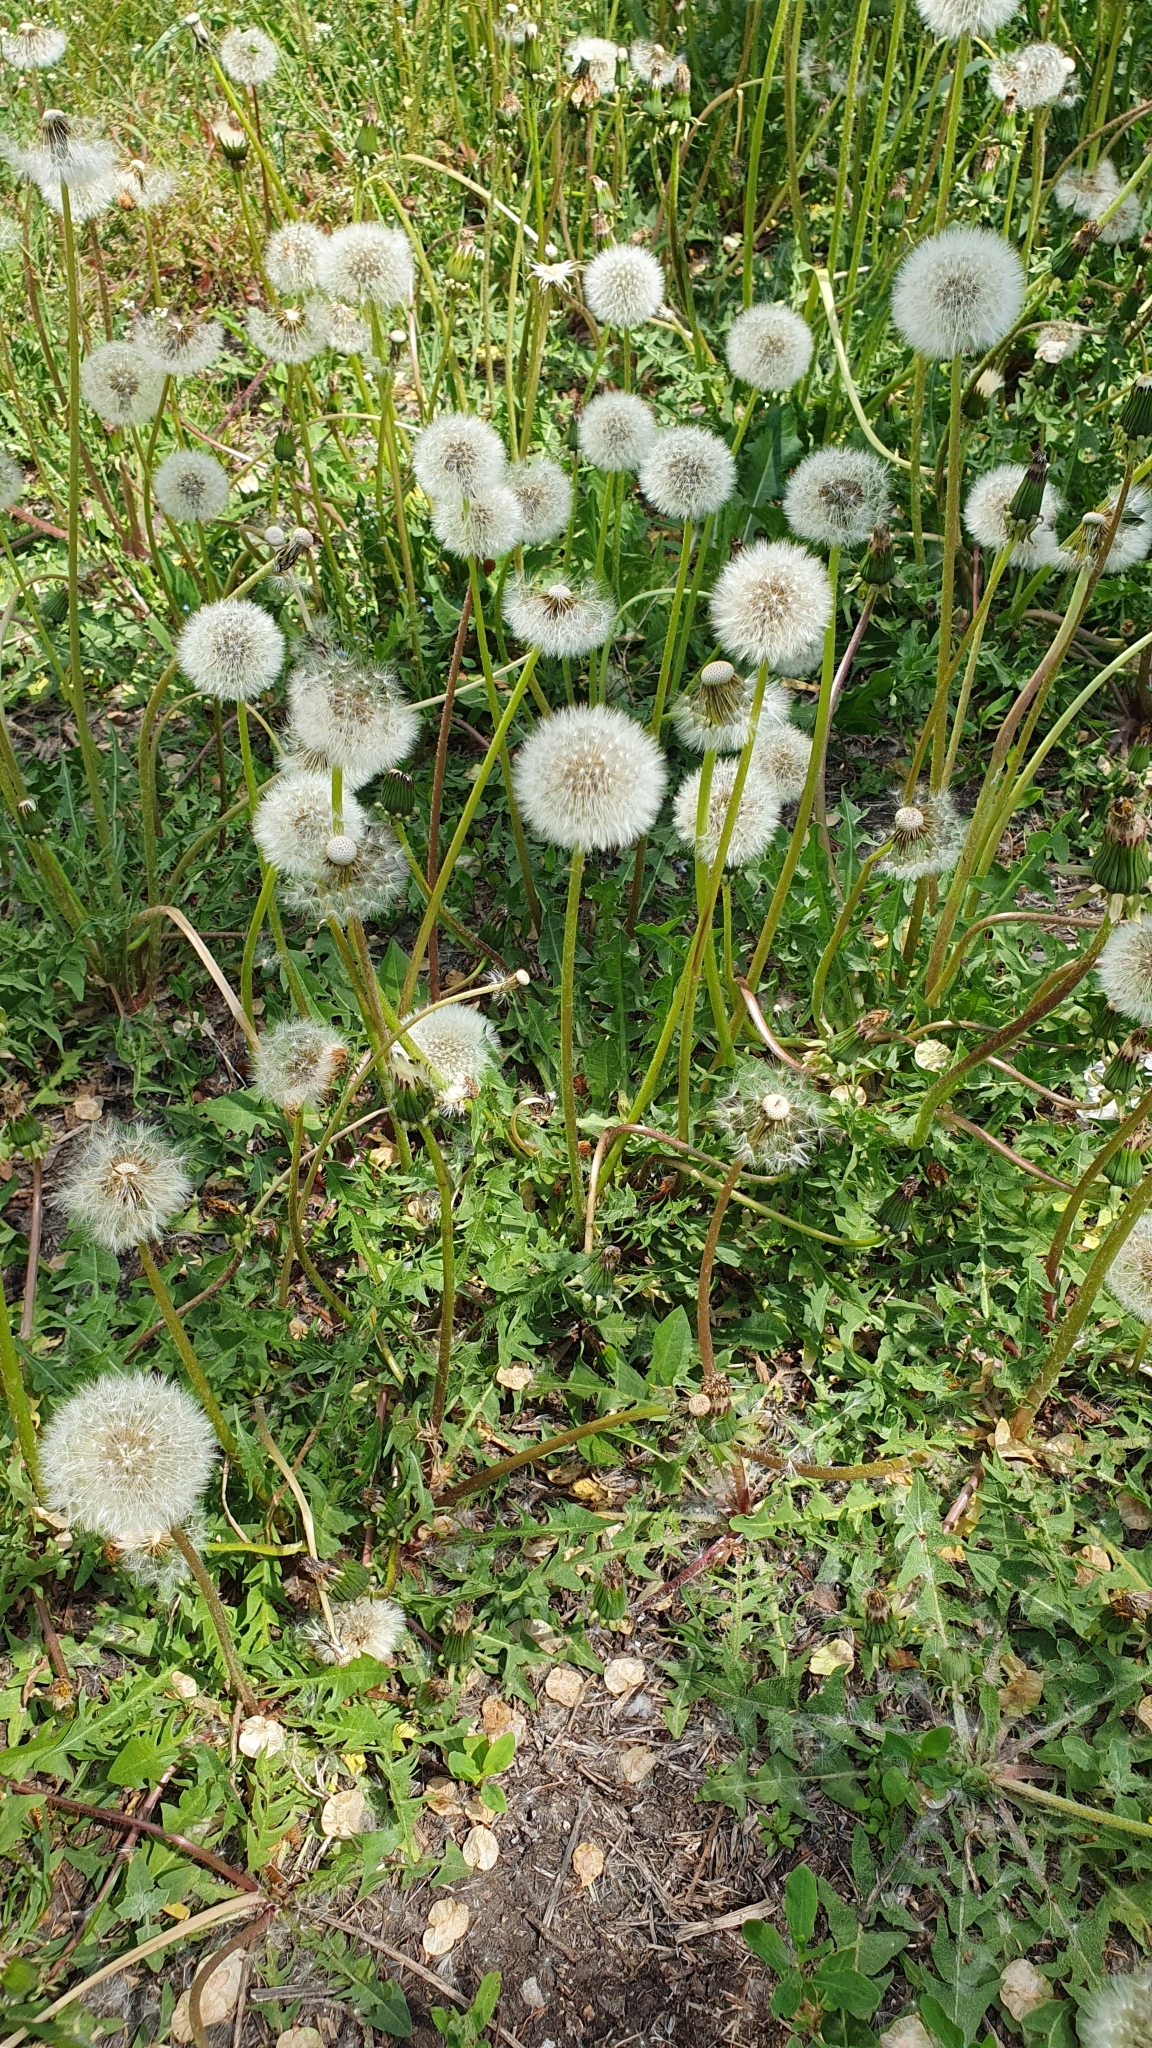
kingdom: Plantae
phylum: Tracheophyta
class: Magnoliopsida
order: Asterales
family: Asteraceae
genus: Taraxacum
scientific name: Taraxacum officinale
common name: Common dandelion
